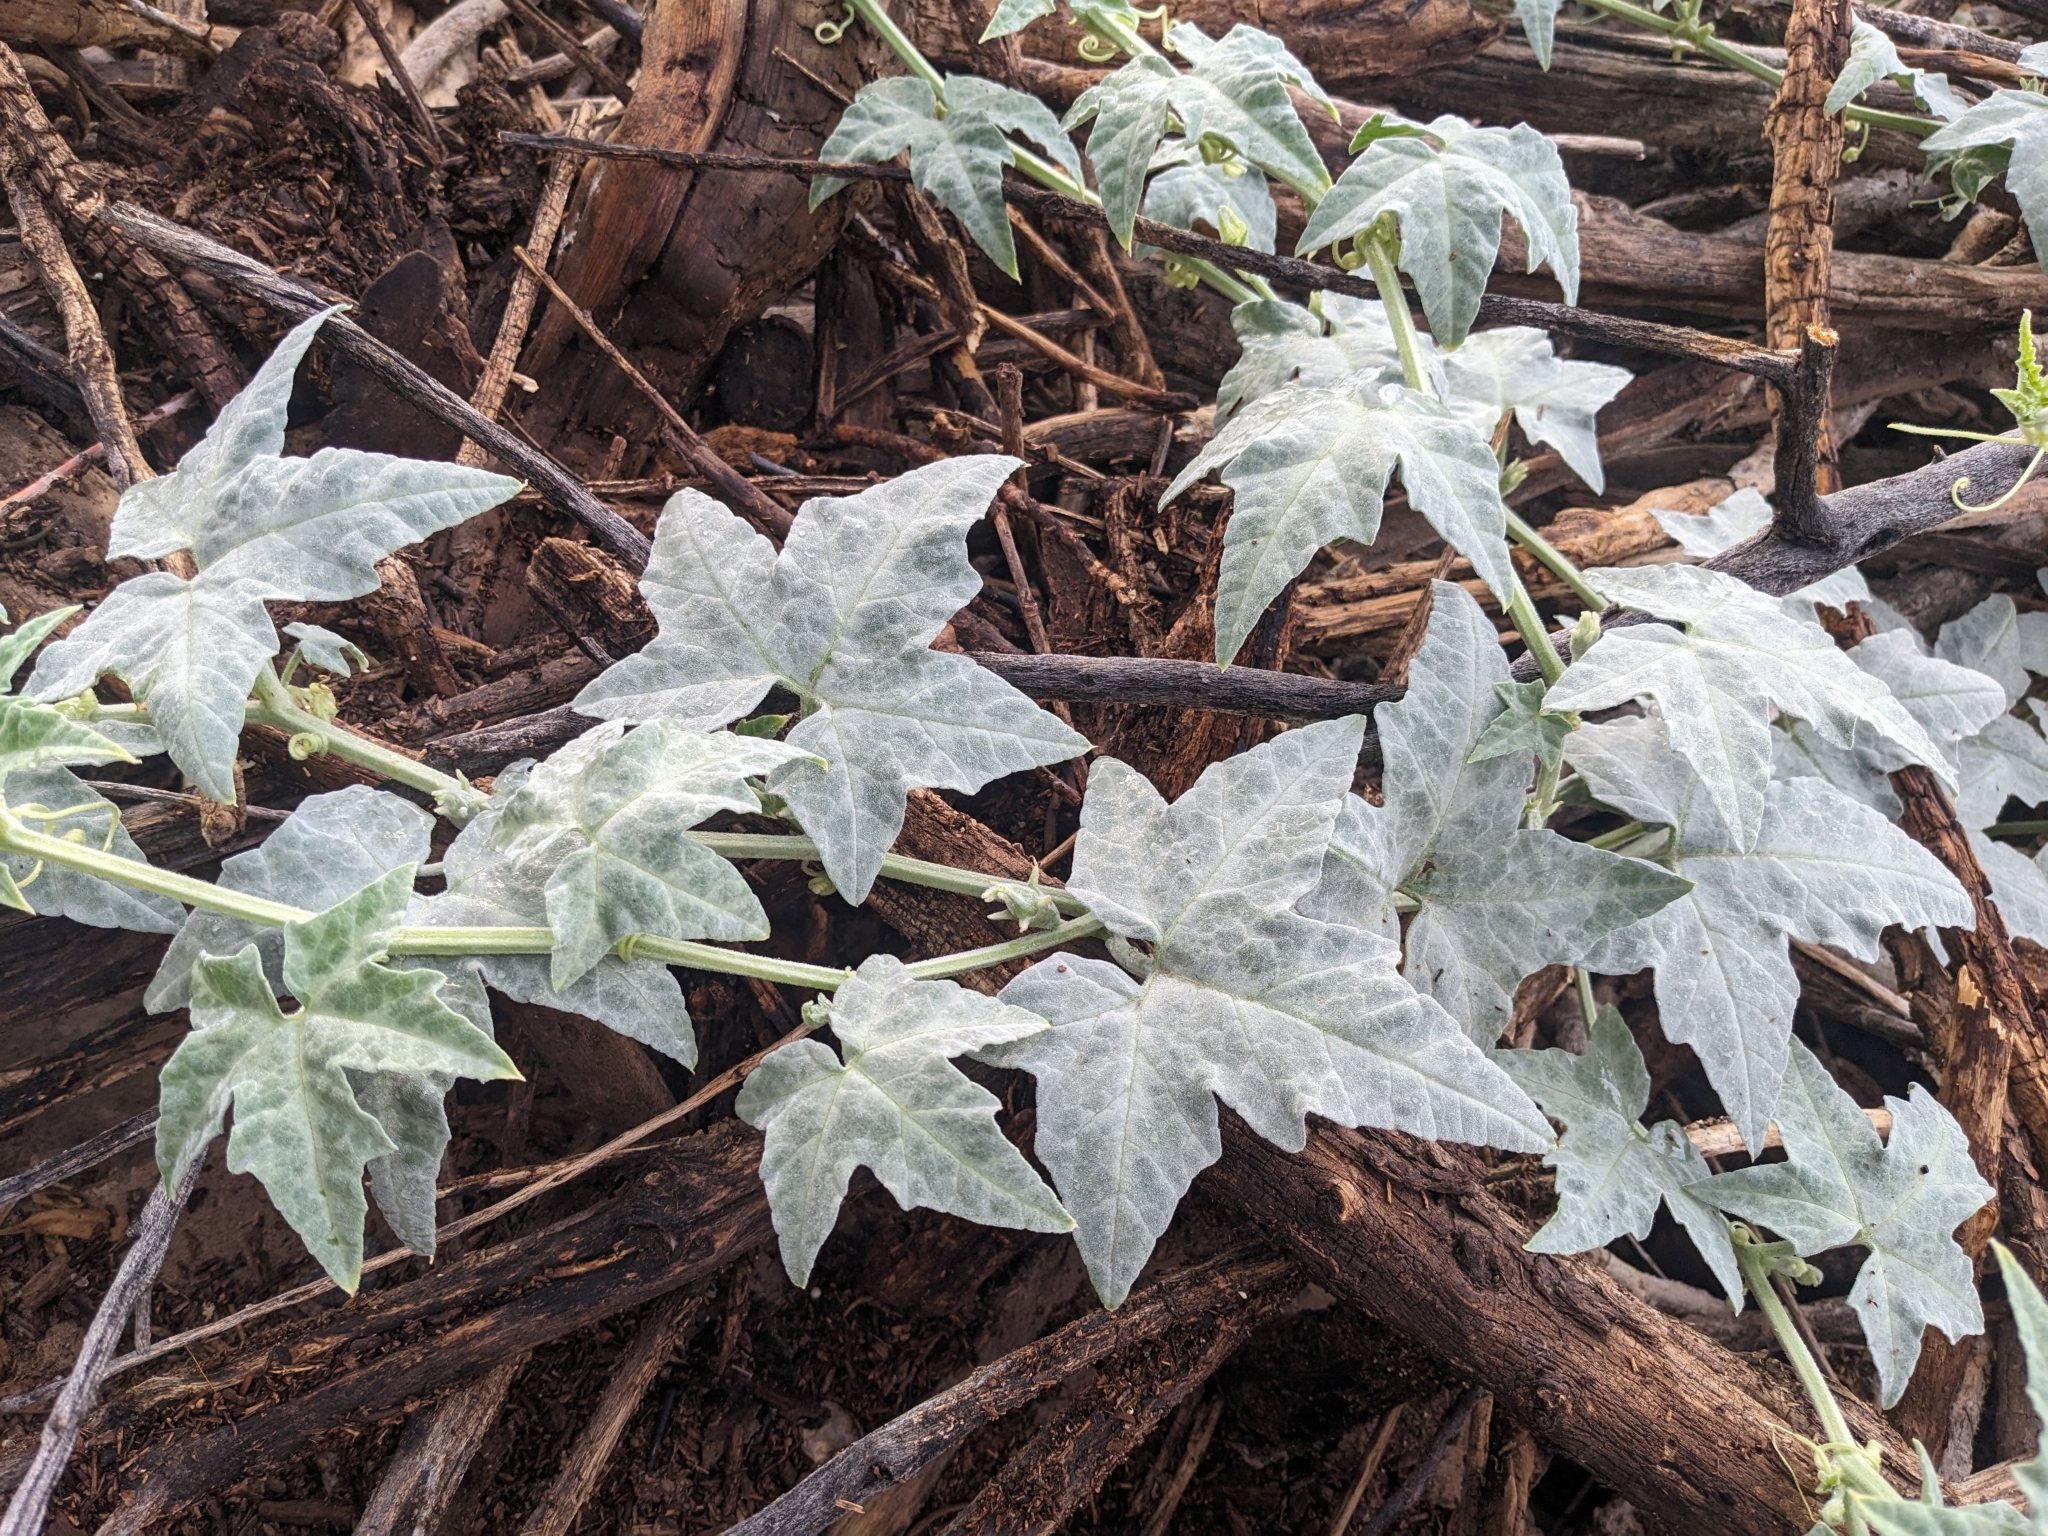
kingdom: Plantae
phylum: Tracheophyta
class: Magnoliopsida
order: Cucurbitales
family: Cucurbitaceae
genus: Cucurbita
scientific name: Cucurbita palmata
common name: Coyote-melon
